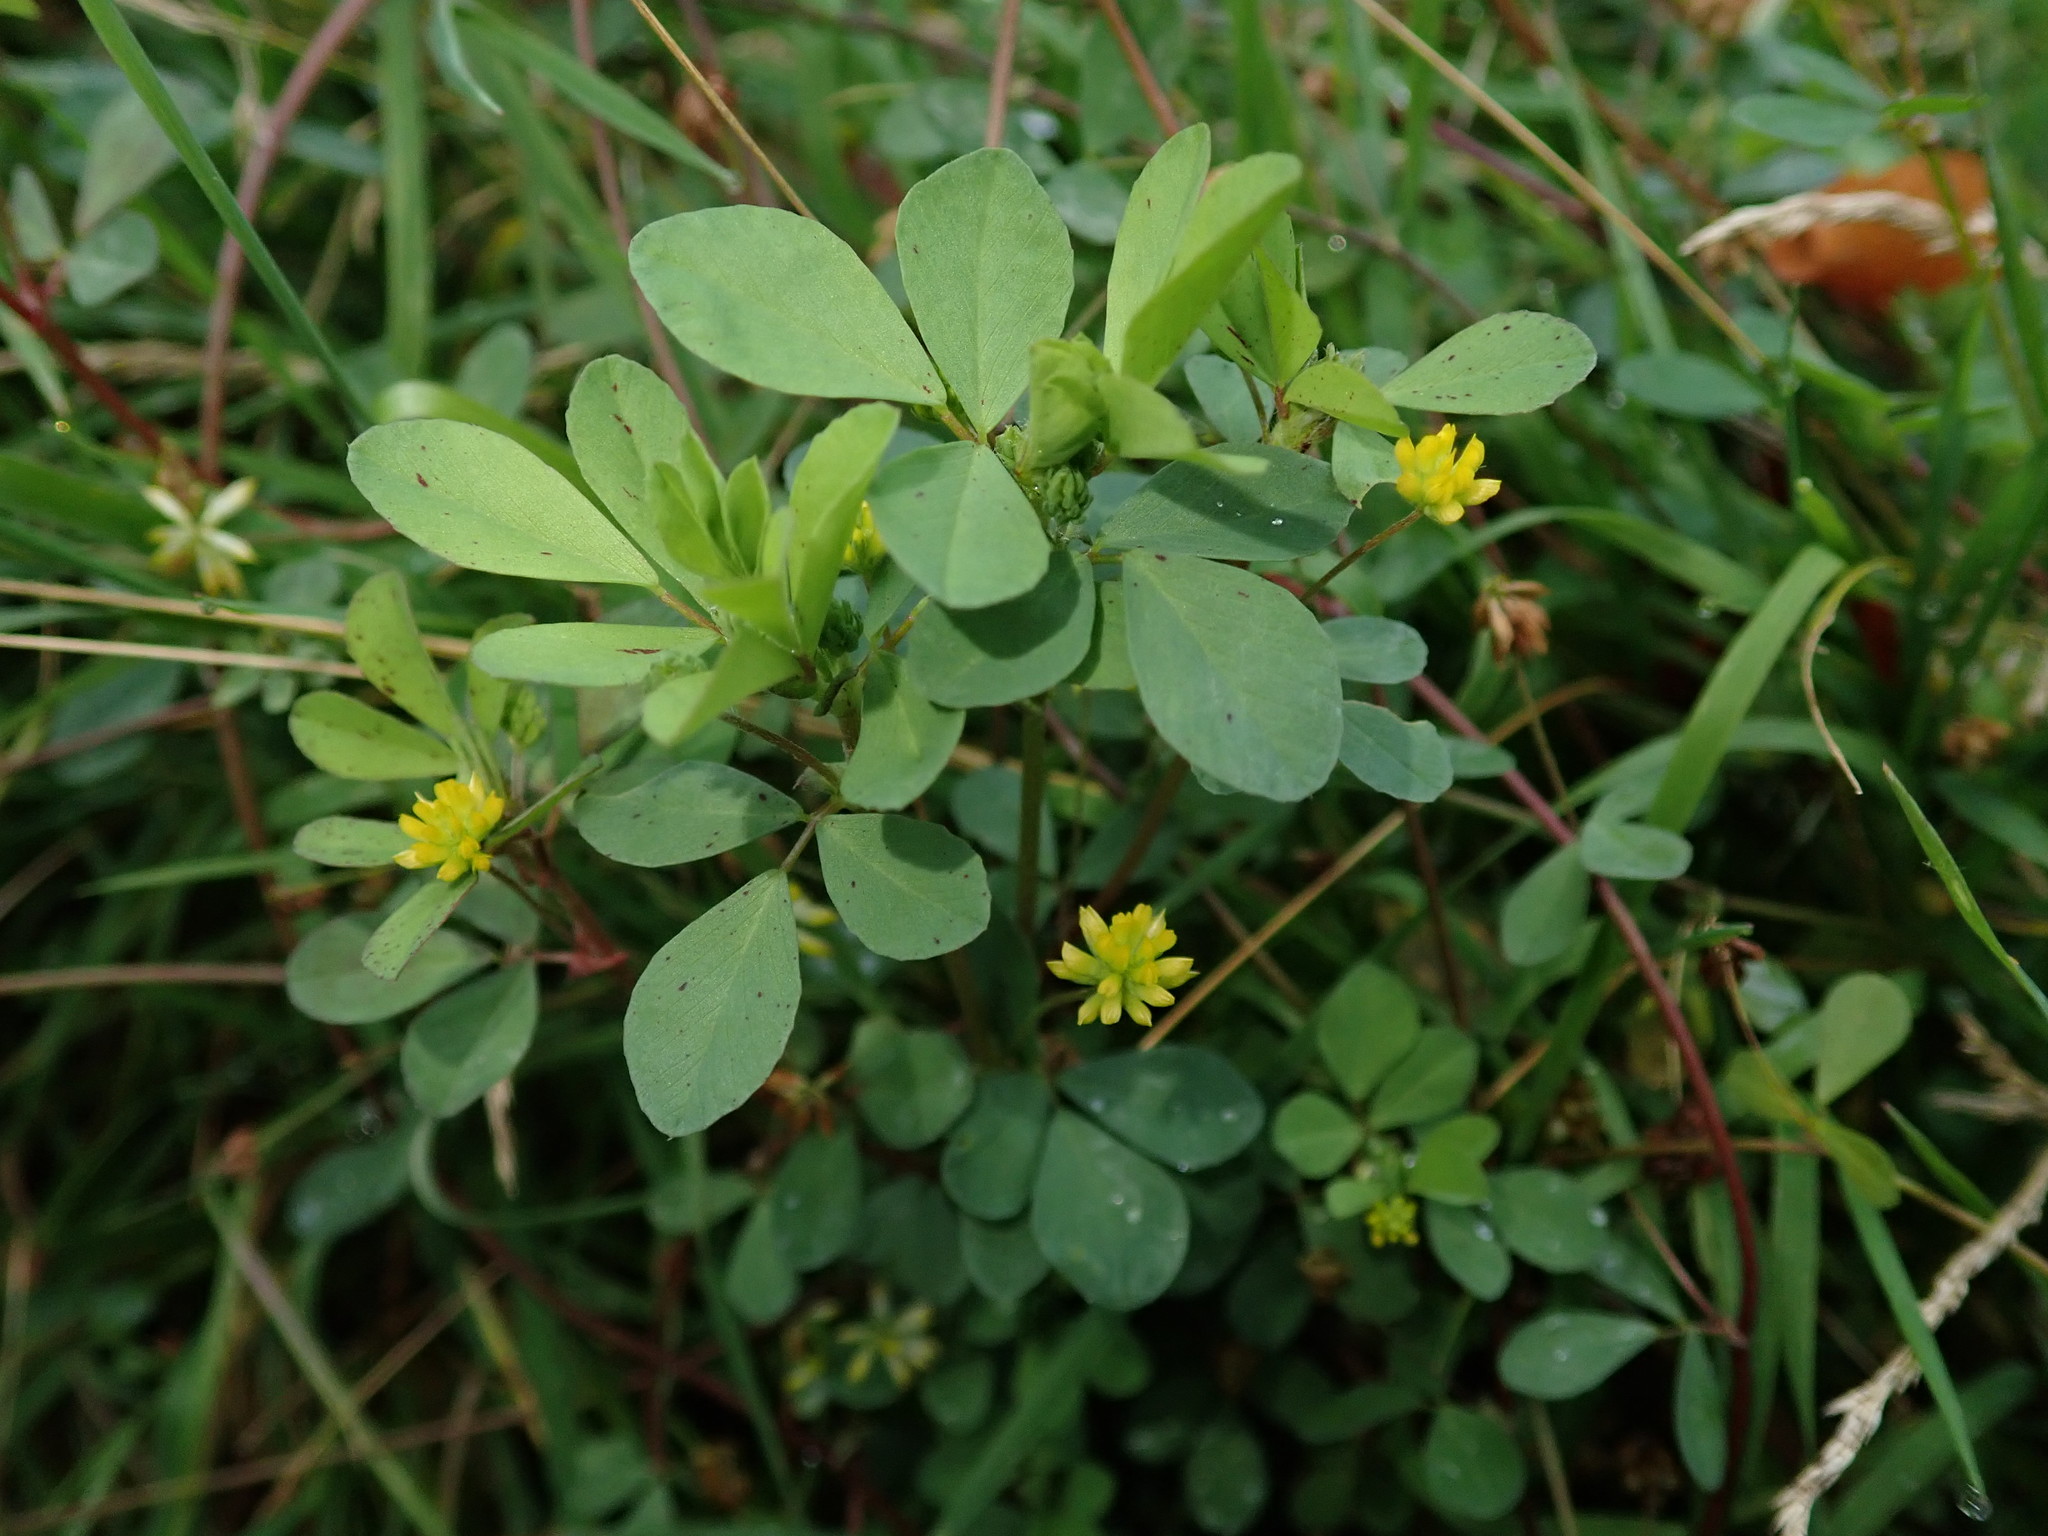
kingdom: Plantae
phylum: Tracheophyta
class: Magnoliopsida
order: Fabales
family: Fabaceae
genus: Trifolium
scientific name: Trifolium dubium
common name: Suckling clover
